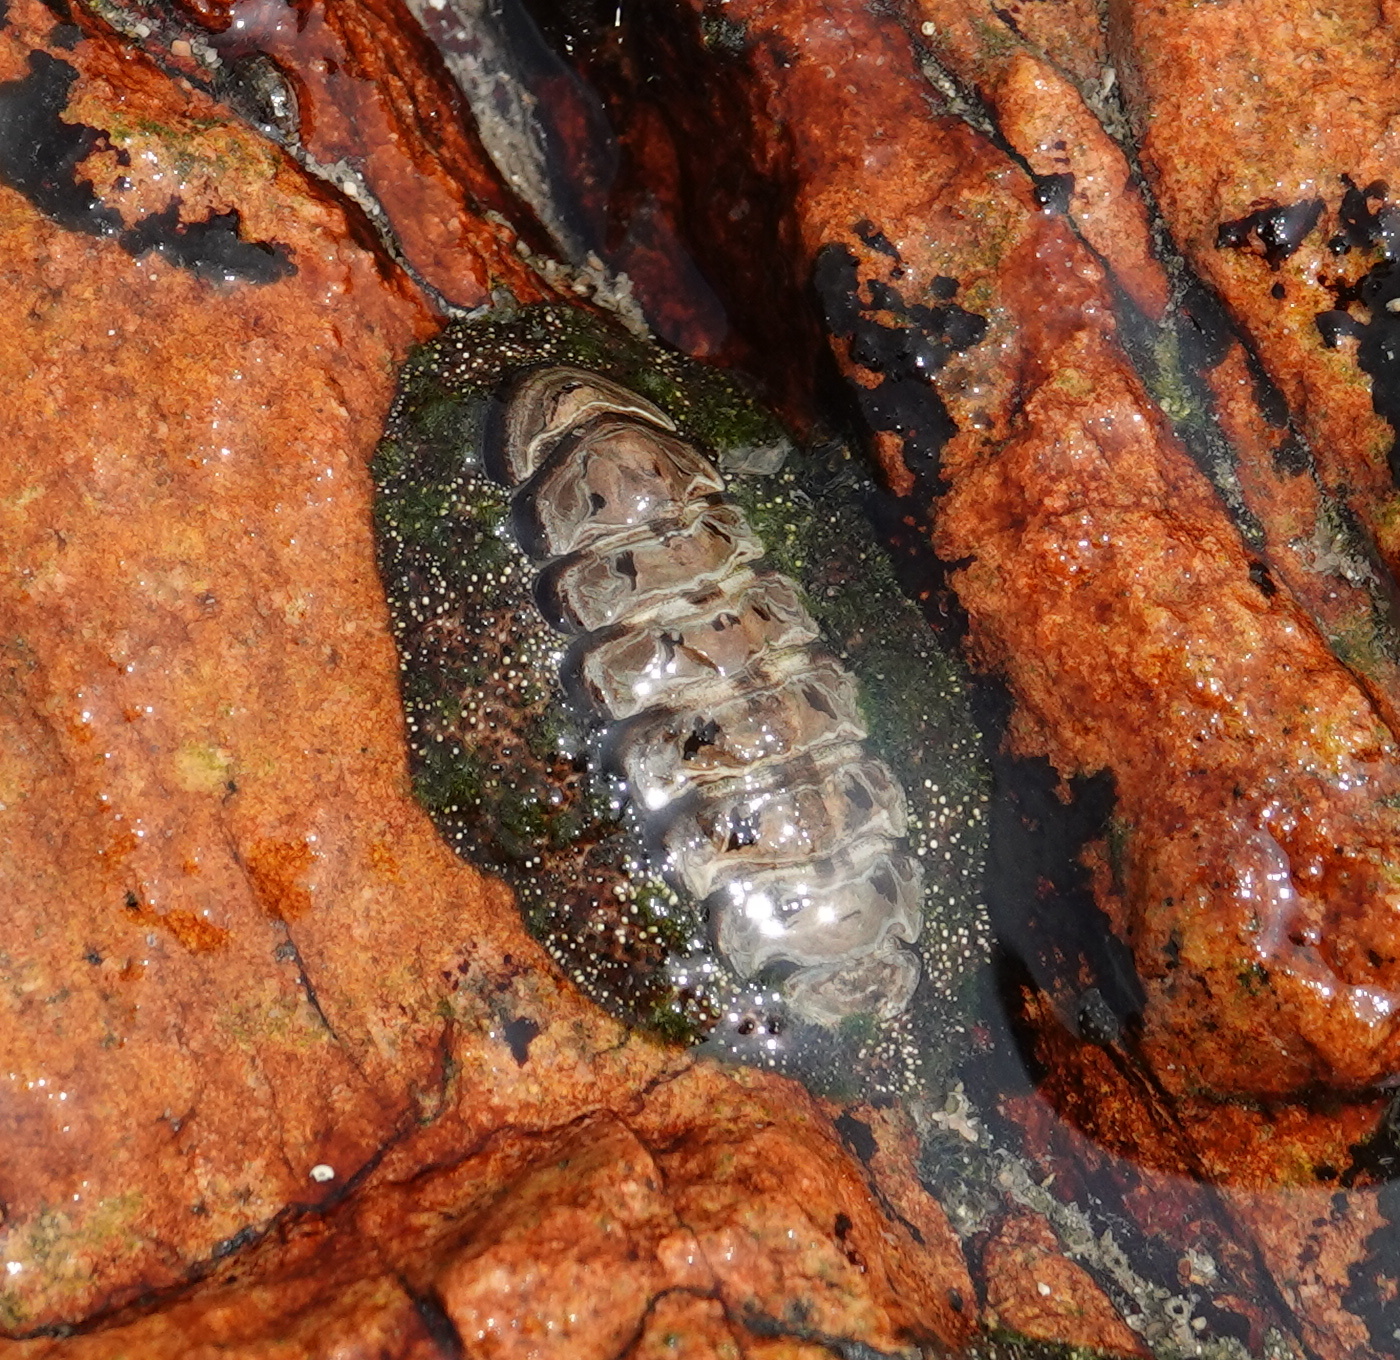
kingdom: Animalia
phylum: Mollusca
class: Polyplacophora
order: Chitonida
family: Chitonidae
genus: Liolophura
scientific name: Liolophura japonica
